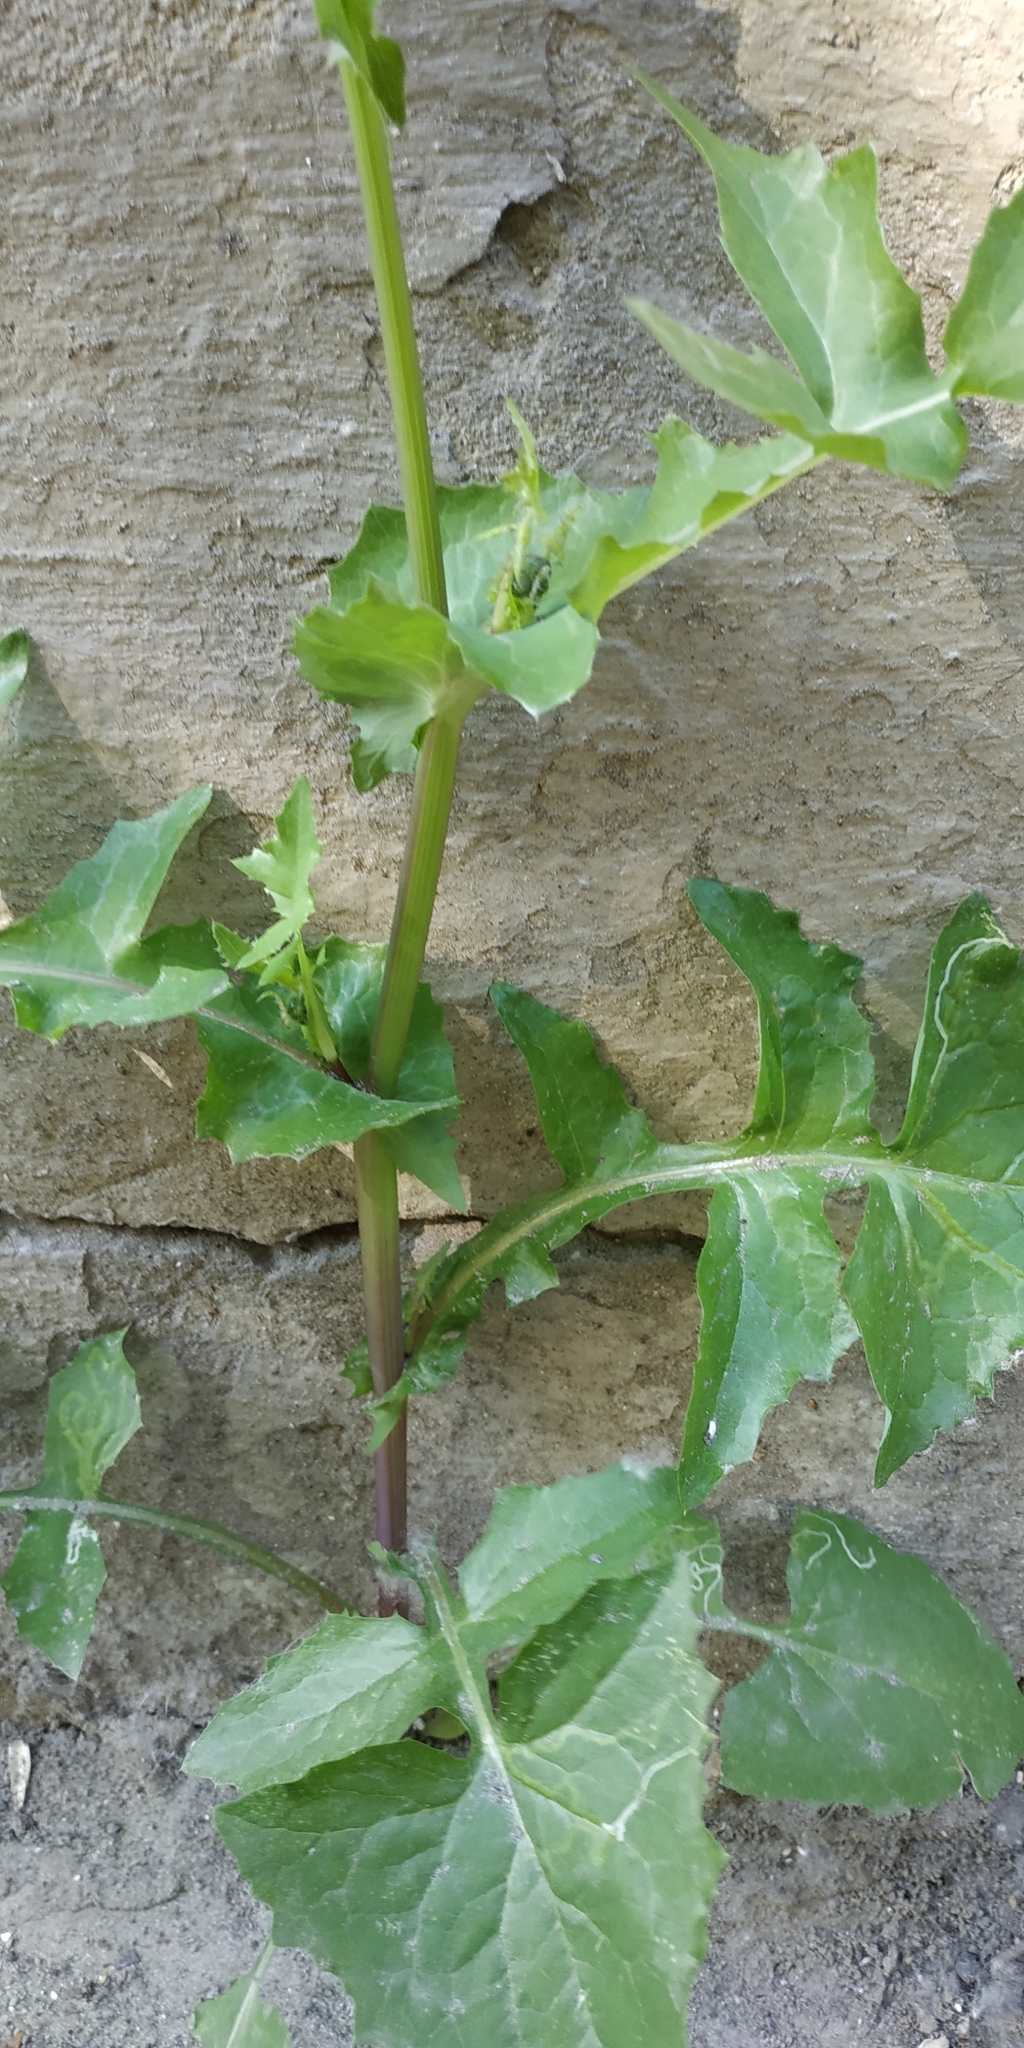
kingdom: Plantae
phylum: Tracheophyta
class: Magnoliopsida
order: Asterales
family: Asteraceae
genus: Sonchus
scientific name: Sonchus oleraceus
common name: Common sowthistle
